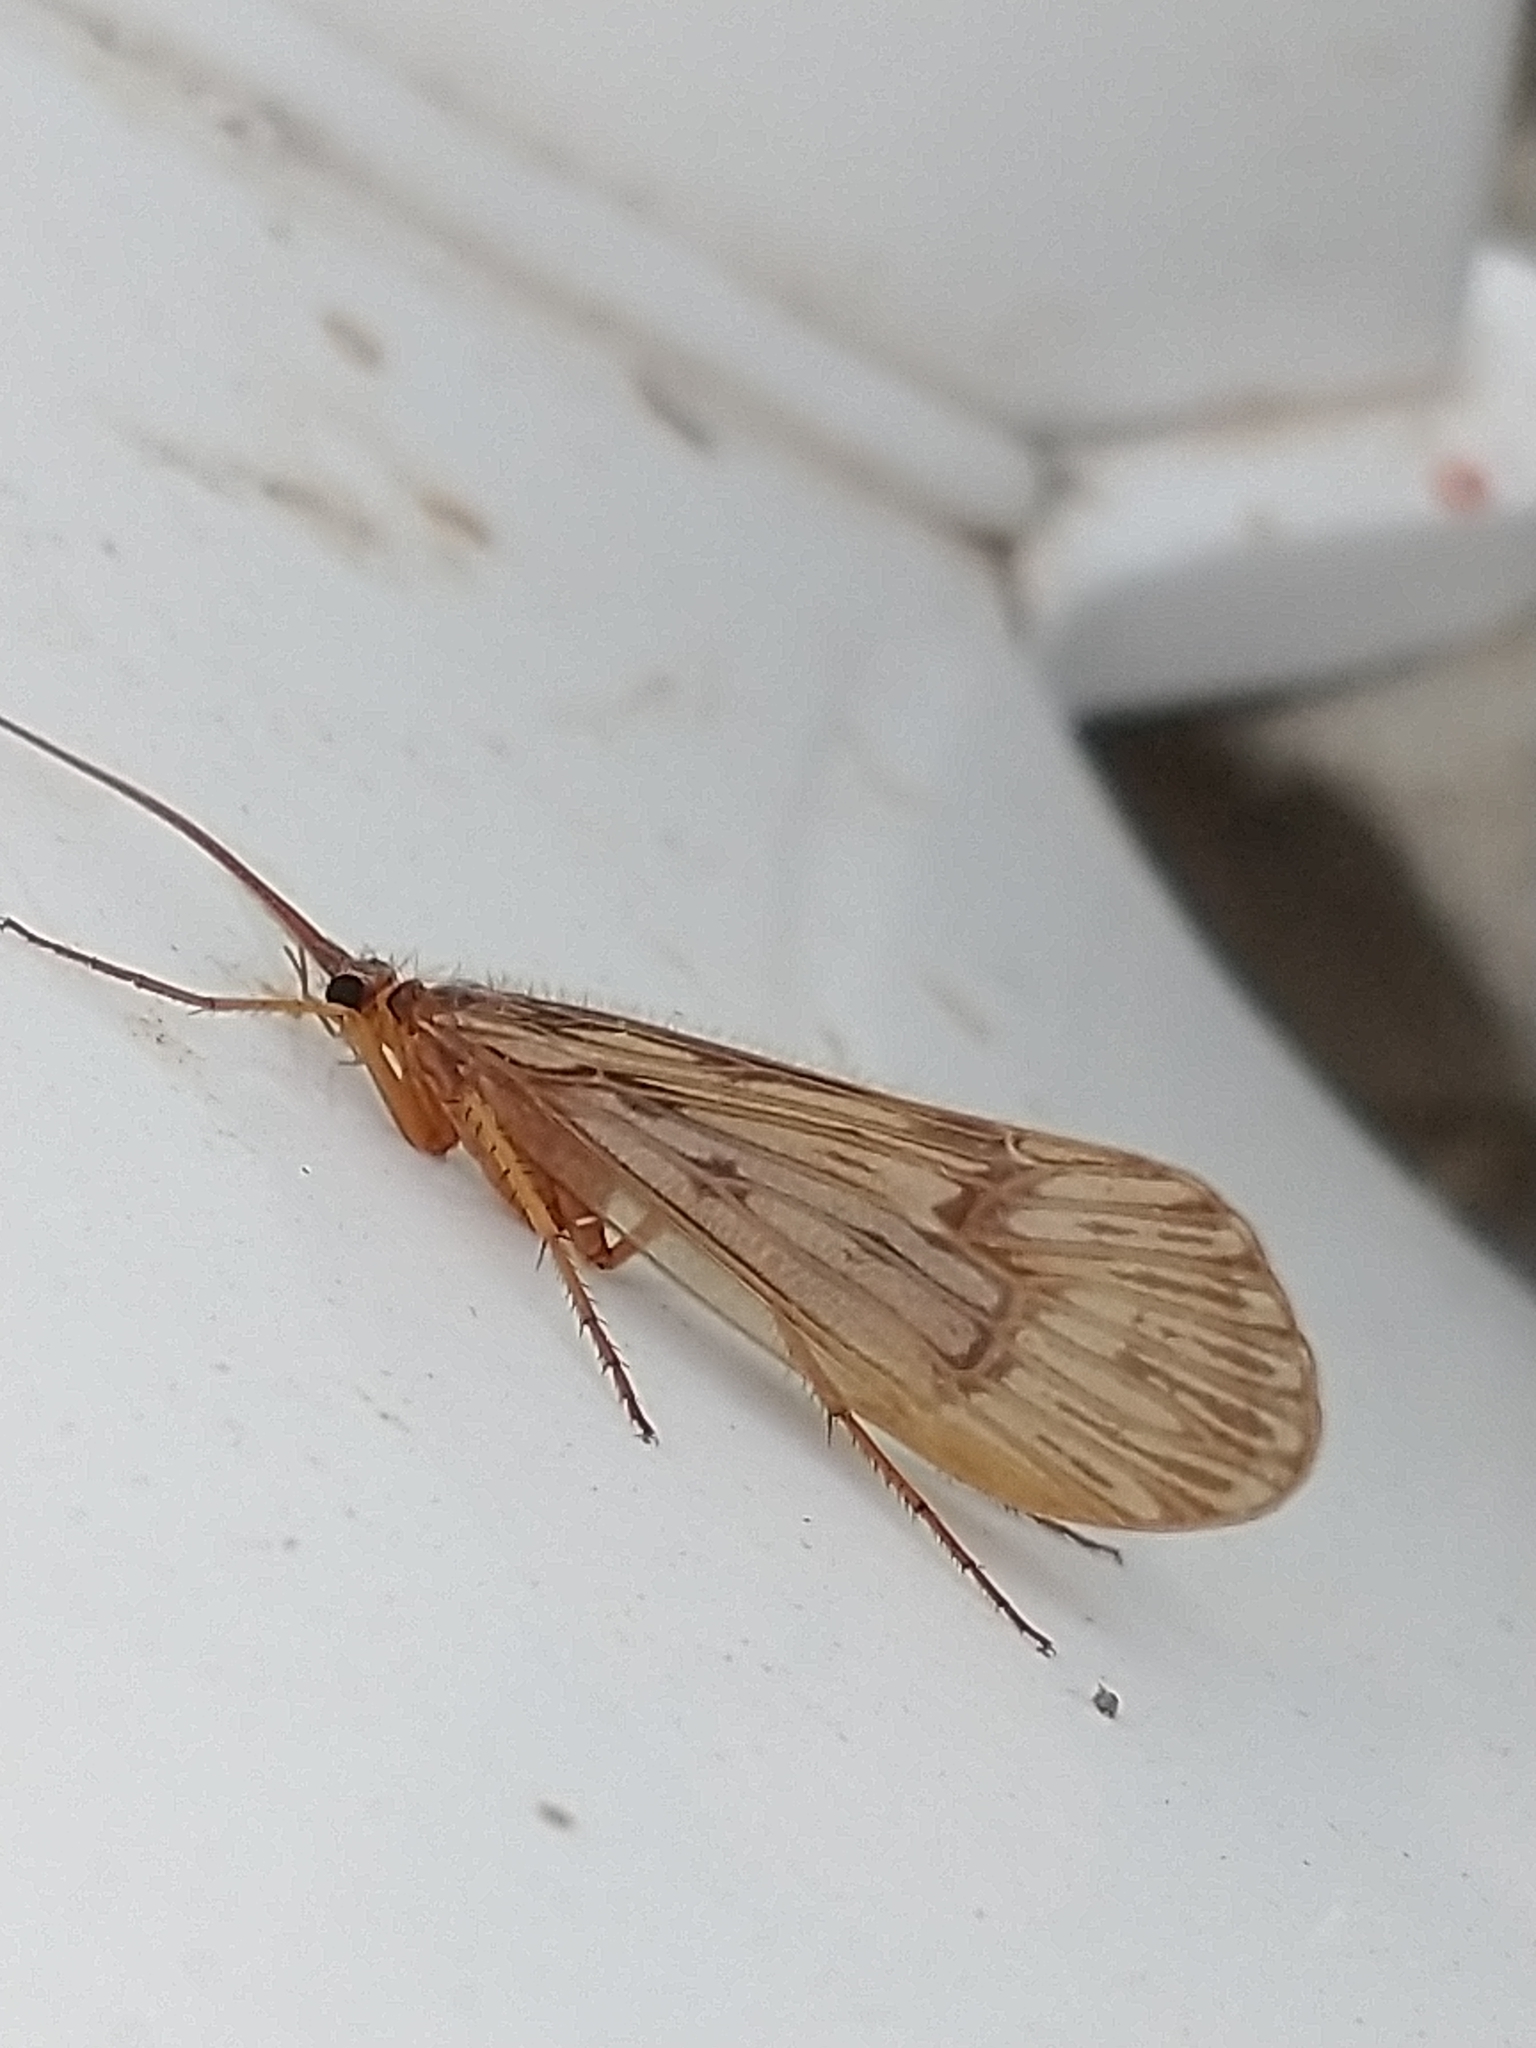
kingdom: Animalia
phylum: Arthropoda
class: Insecta
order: Trichoptera
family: Limnephilidae
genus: Halesus
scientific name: Halesus radiatus
